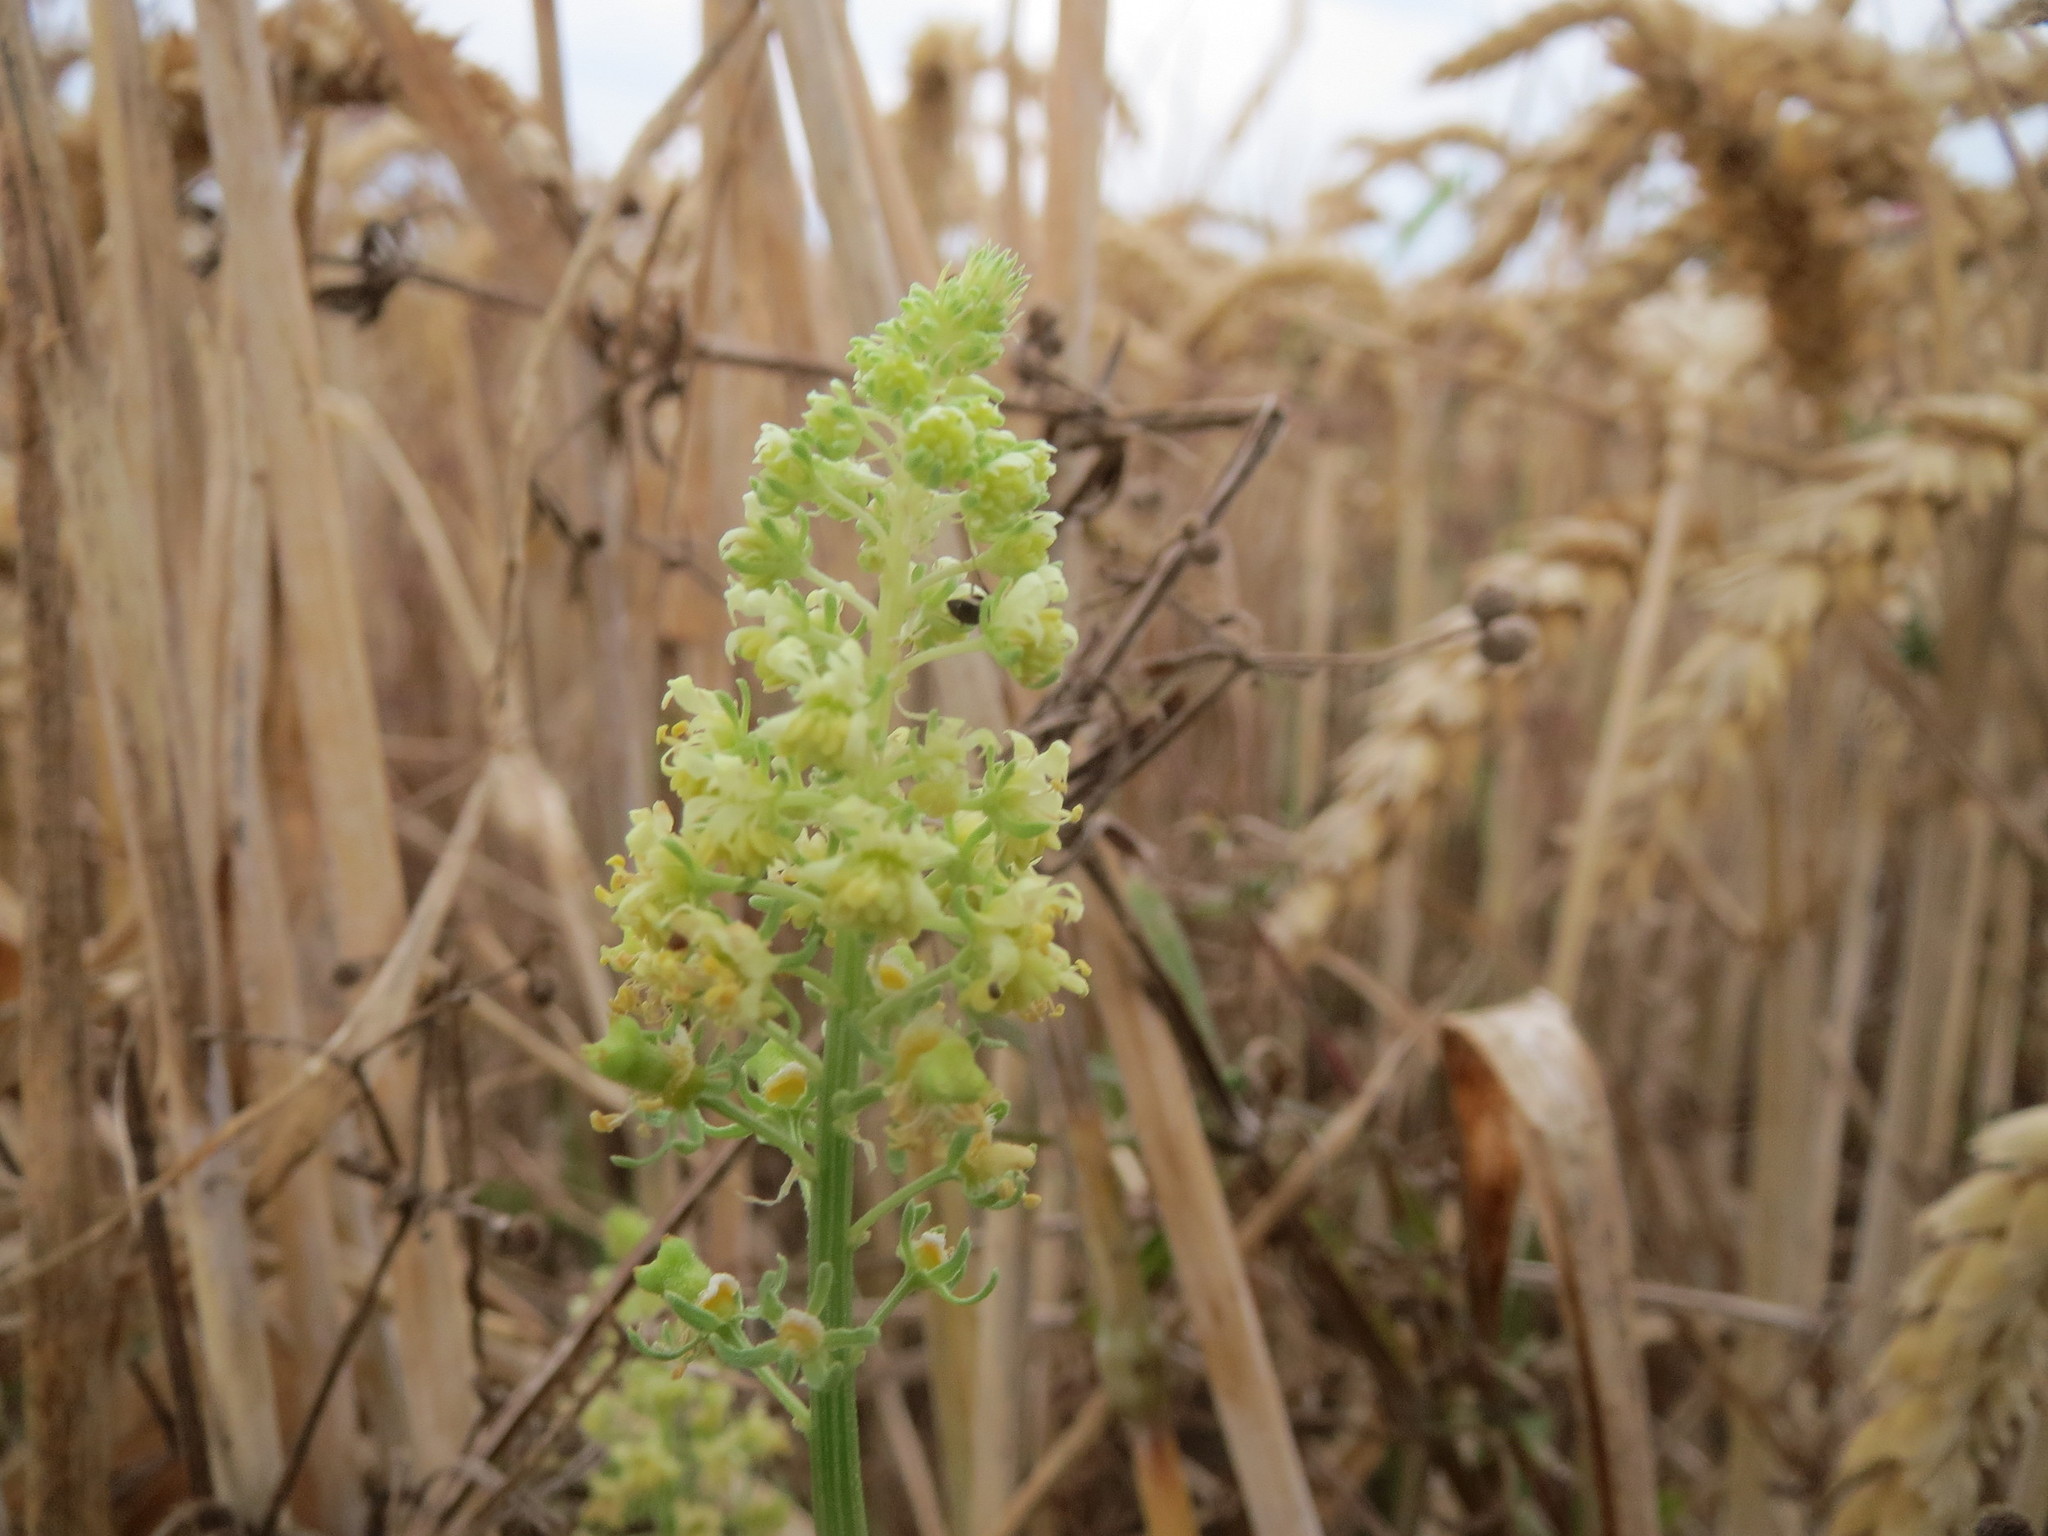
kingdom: Plantae
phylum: Tracheophyta
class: Magnoliopsida
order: Brassicales
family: Resedaceae
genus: Reseda
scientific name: Reseda lutea
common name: Wild mignonette
